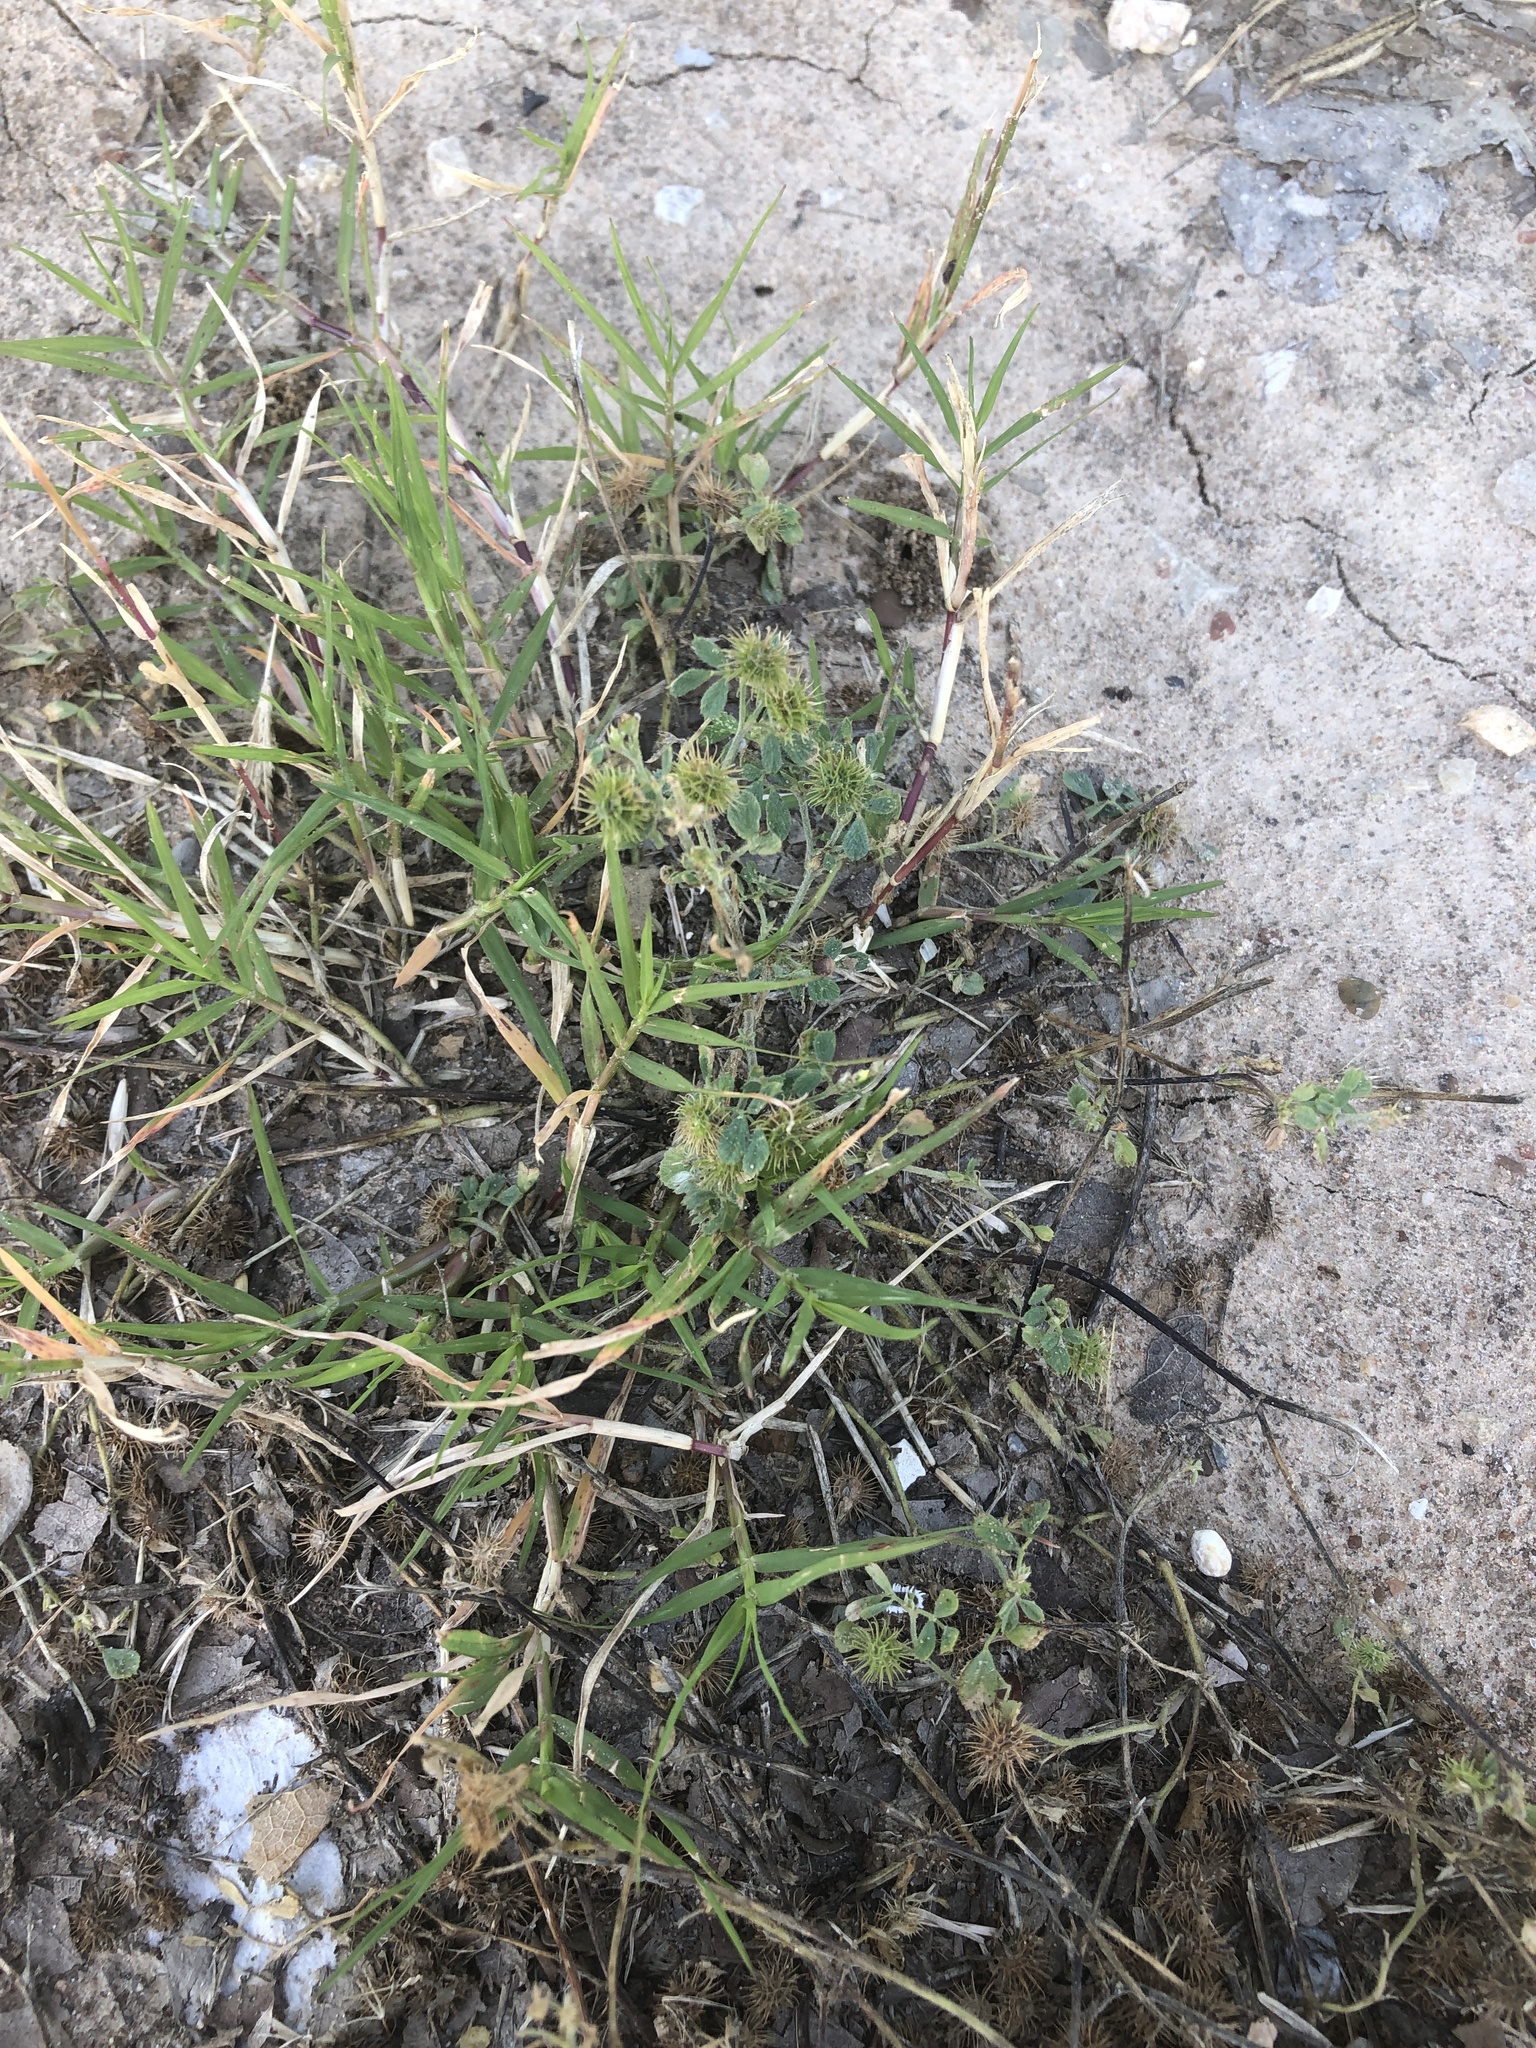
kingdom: Plantae
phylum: Tracheophyta
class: Magnoliopsida
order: Fabales
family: Fabaceae
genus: Medicago
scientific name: Medicago minima
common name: Little bur-clover
